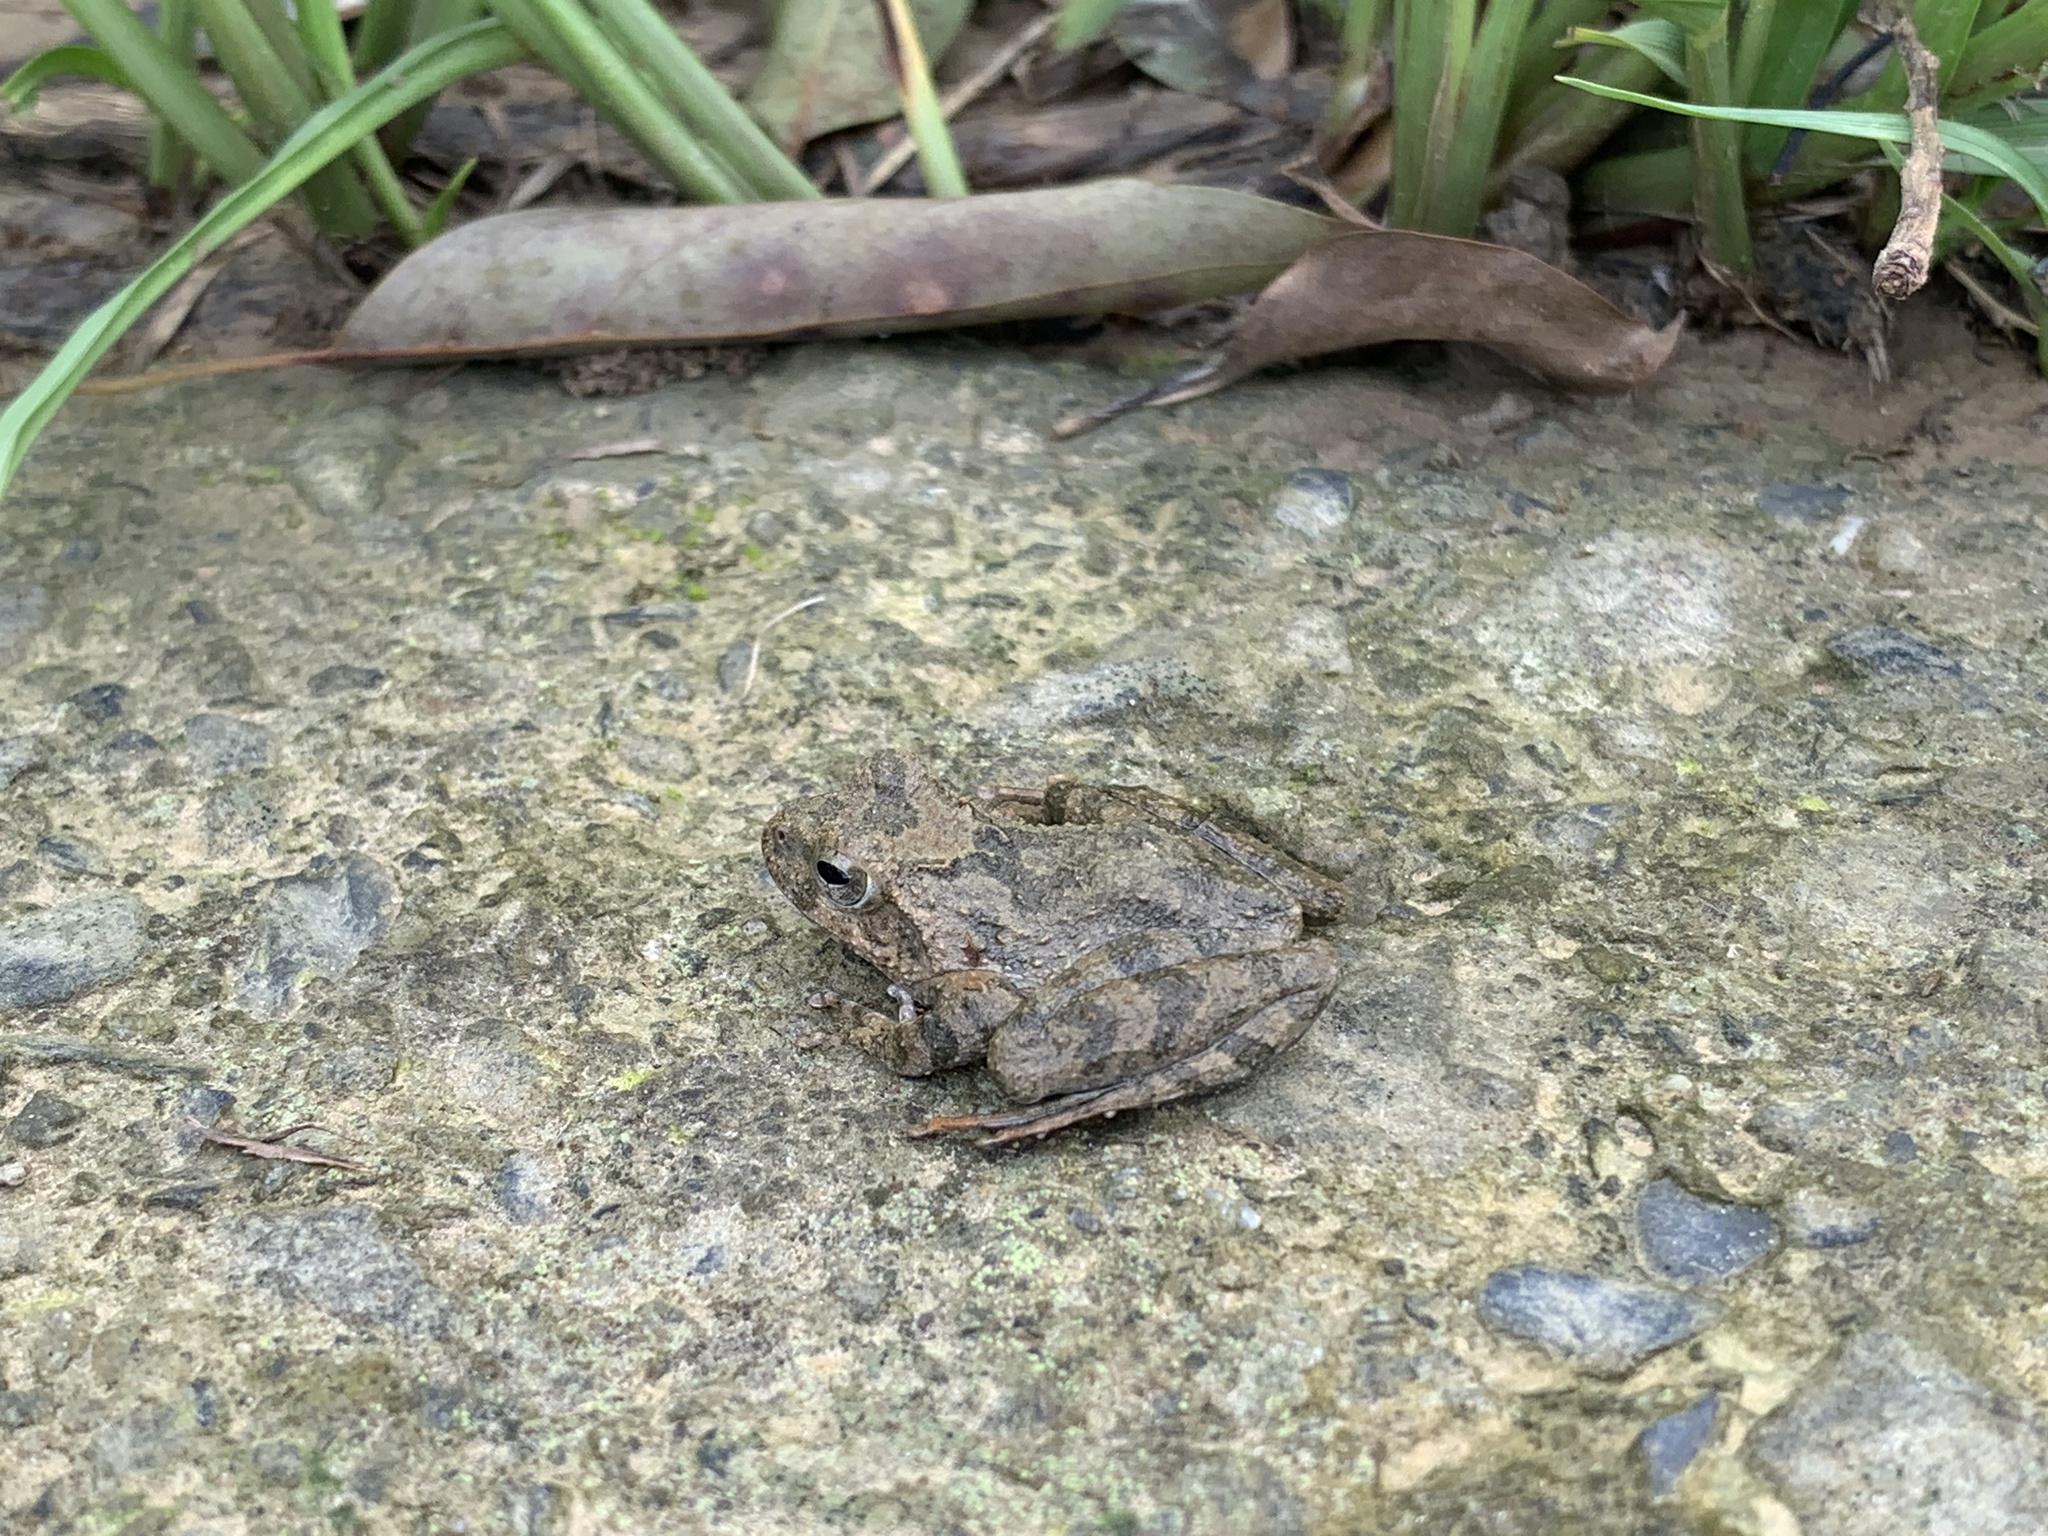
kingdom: Animalia
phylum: Chordata
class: Amphibia
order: Anura
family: Rhacophoridae
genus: Buergeria
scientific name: Buergeria otai
